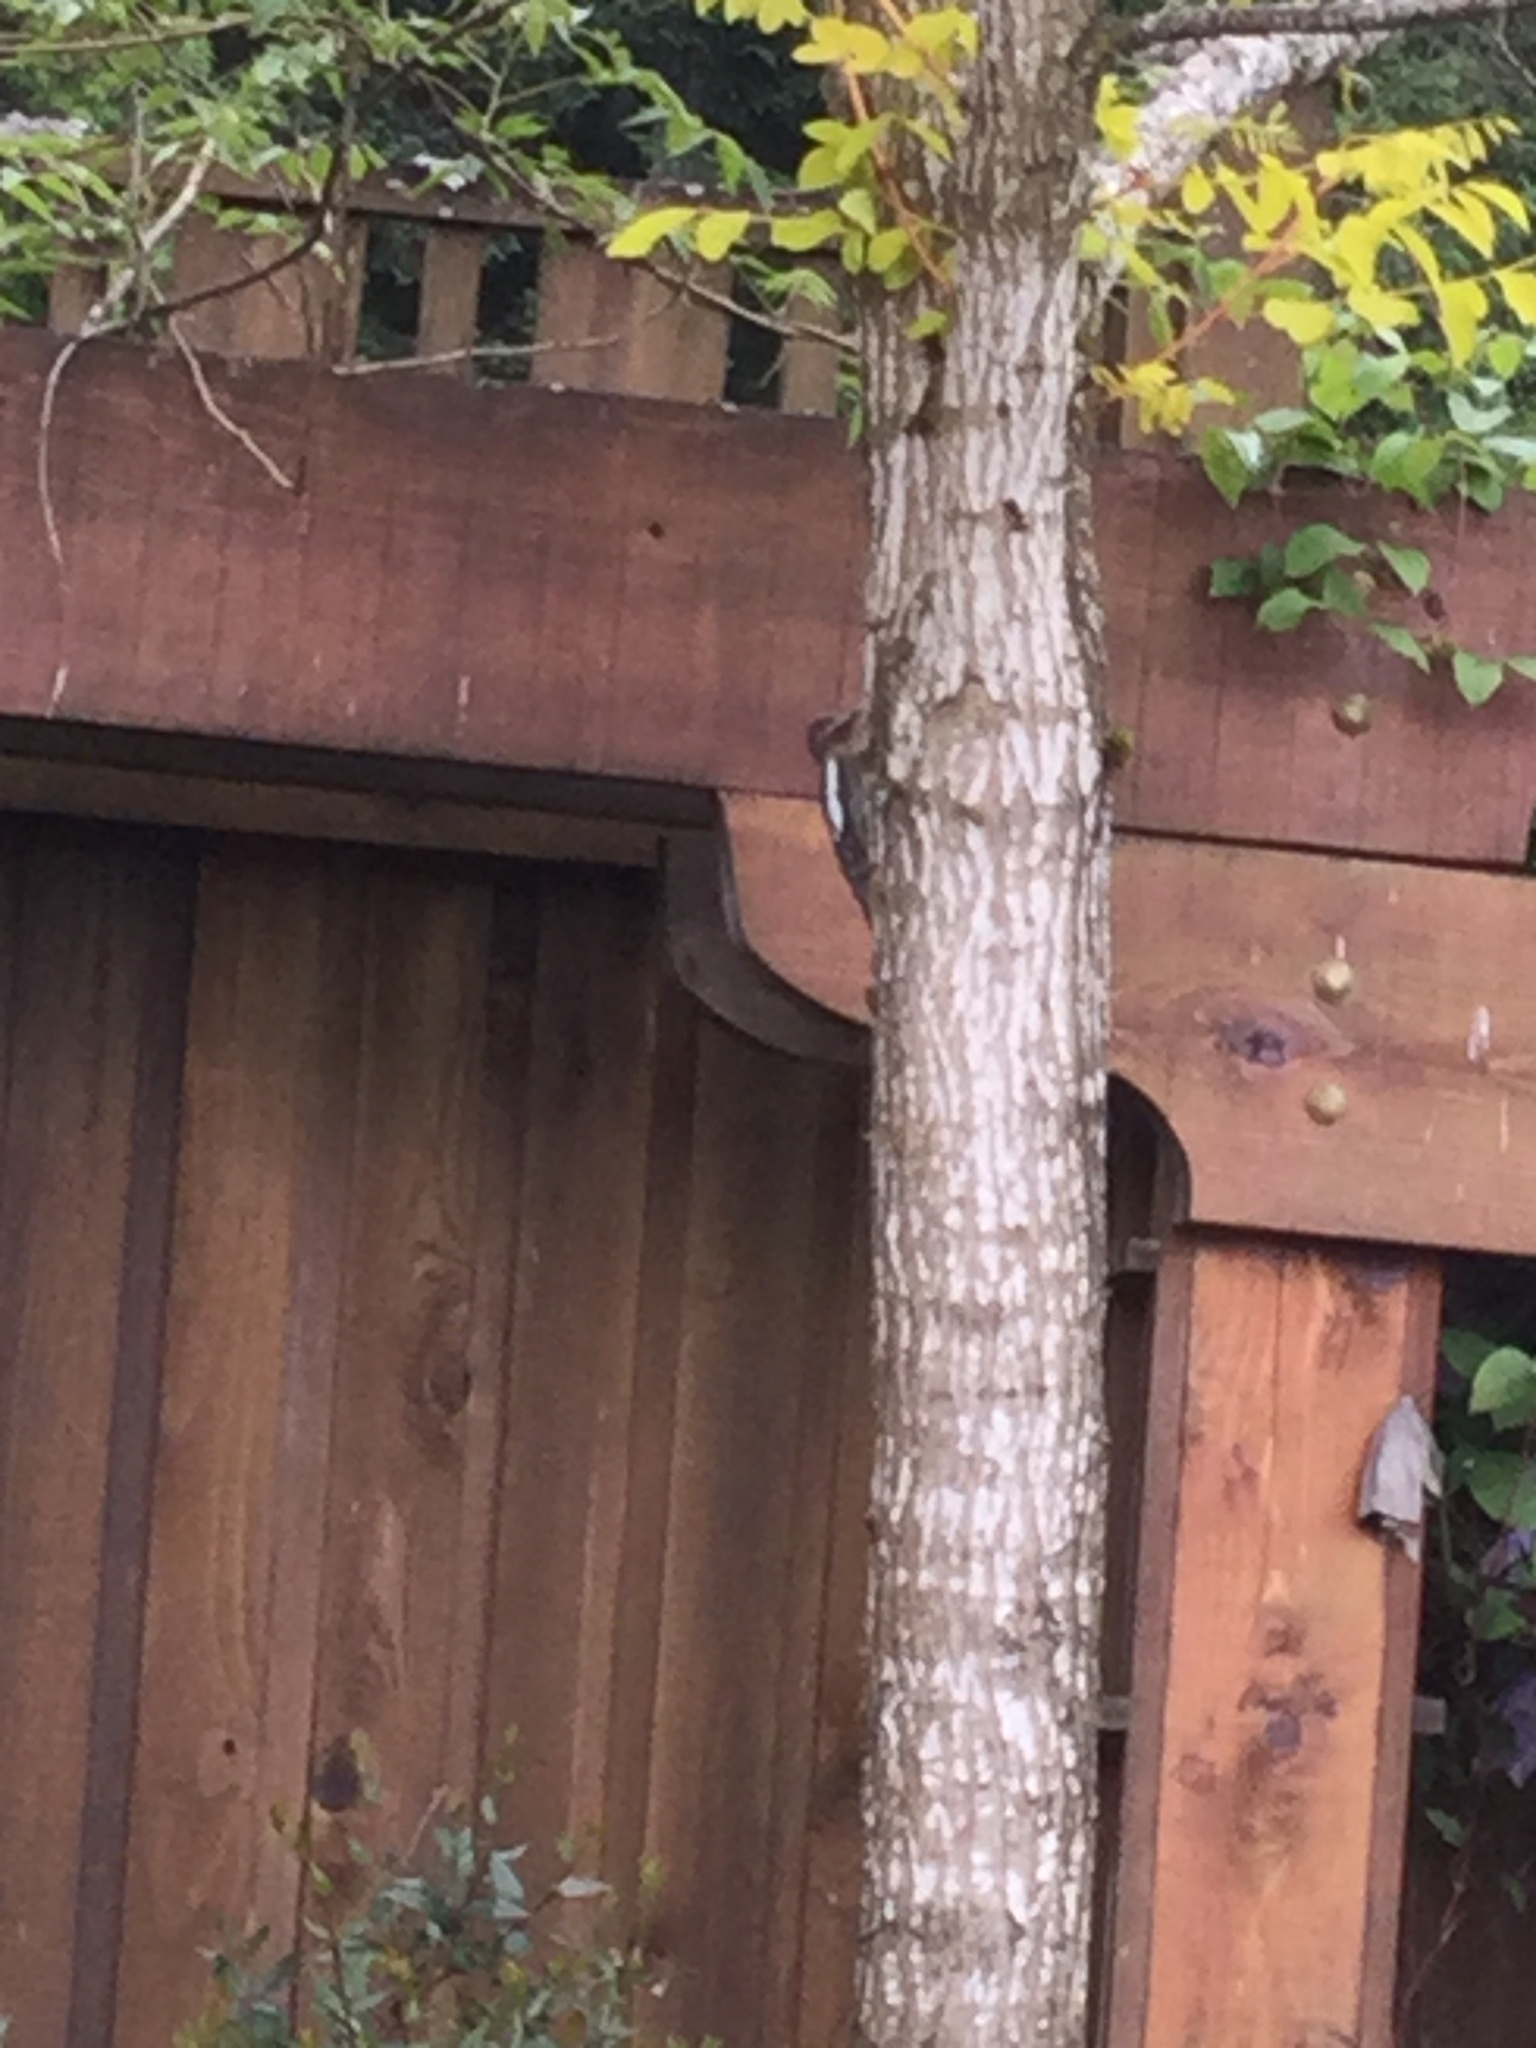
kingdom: Animalia
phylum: Chordata
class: Aves
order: Piciformes
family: Picidae
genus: Sphyrapicus
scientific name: Sphyrapicus ruber
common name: Red-breasted sapsucker
